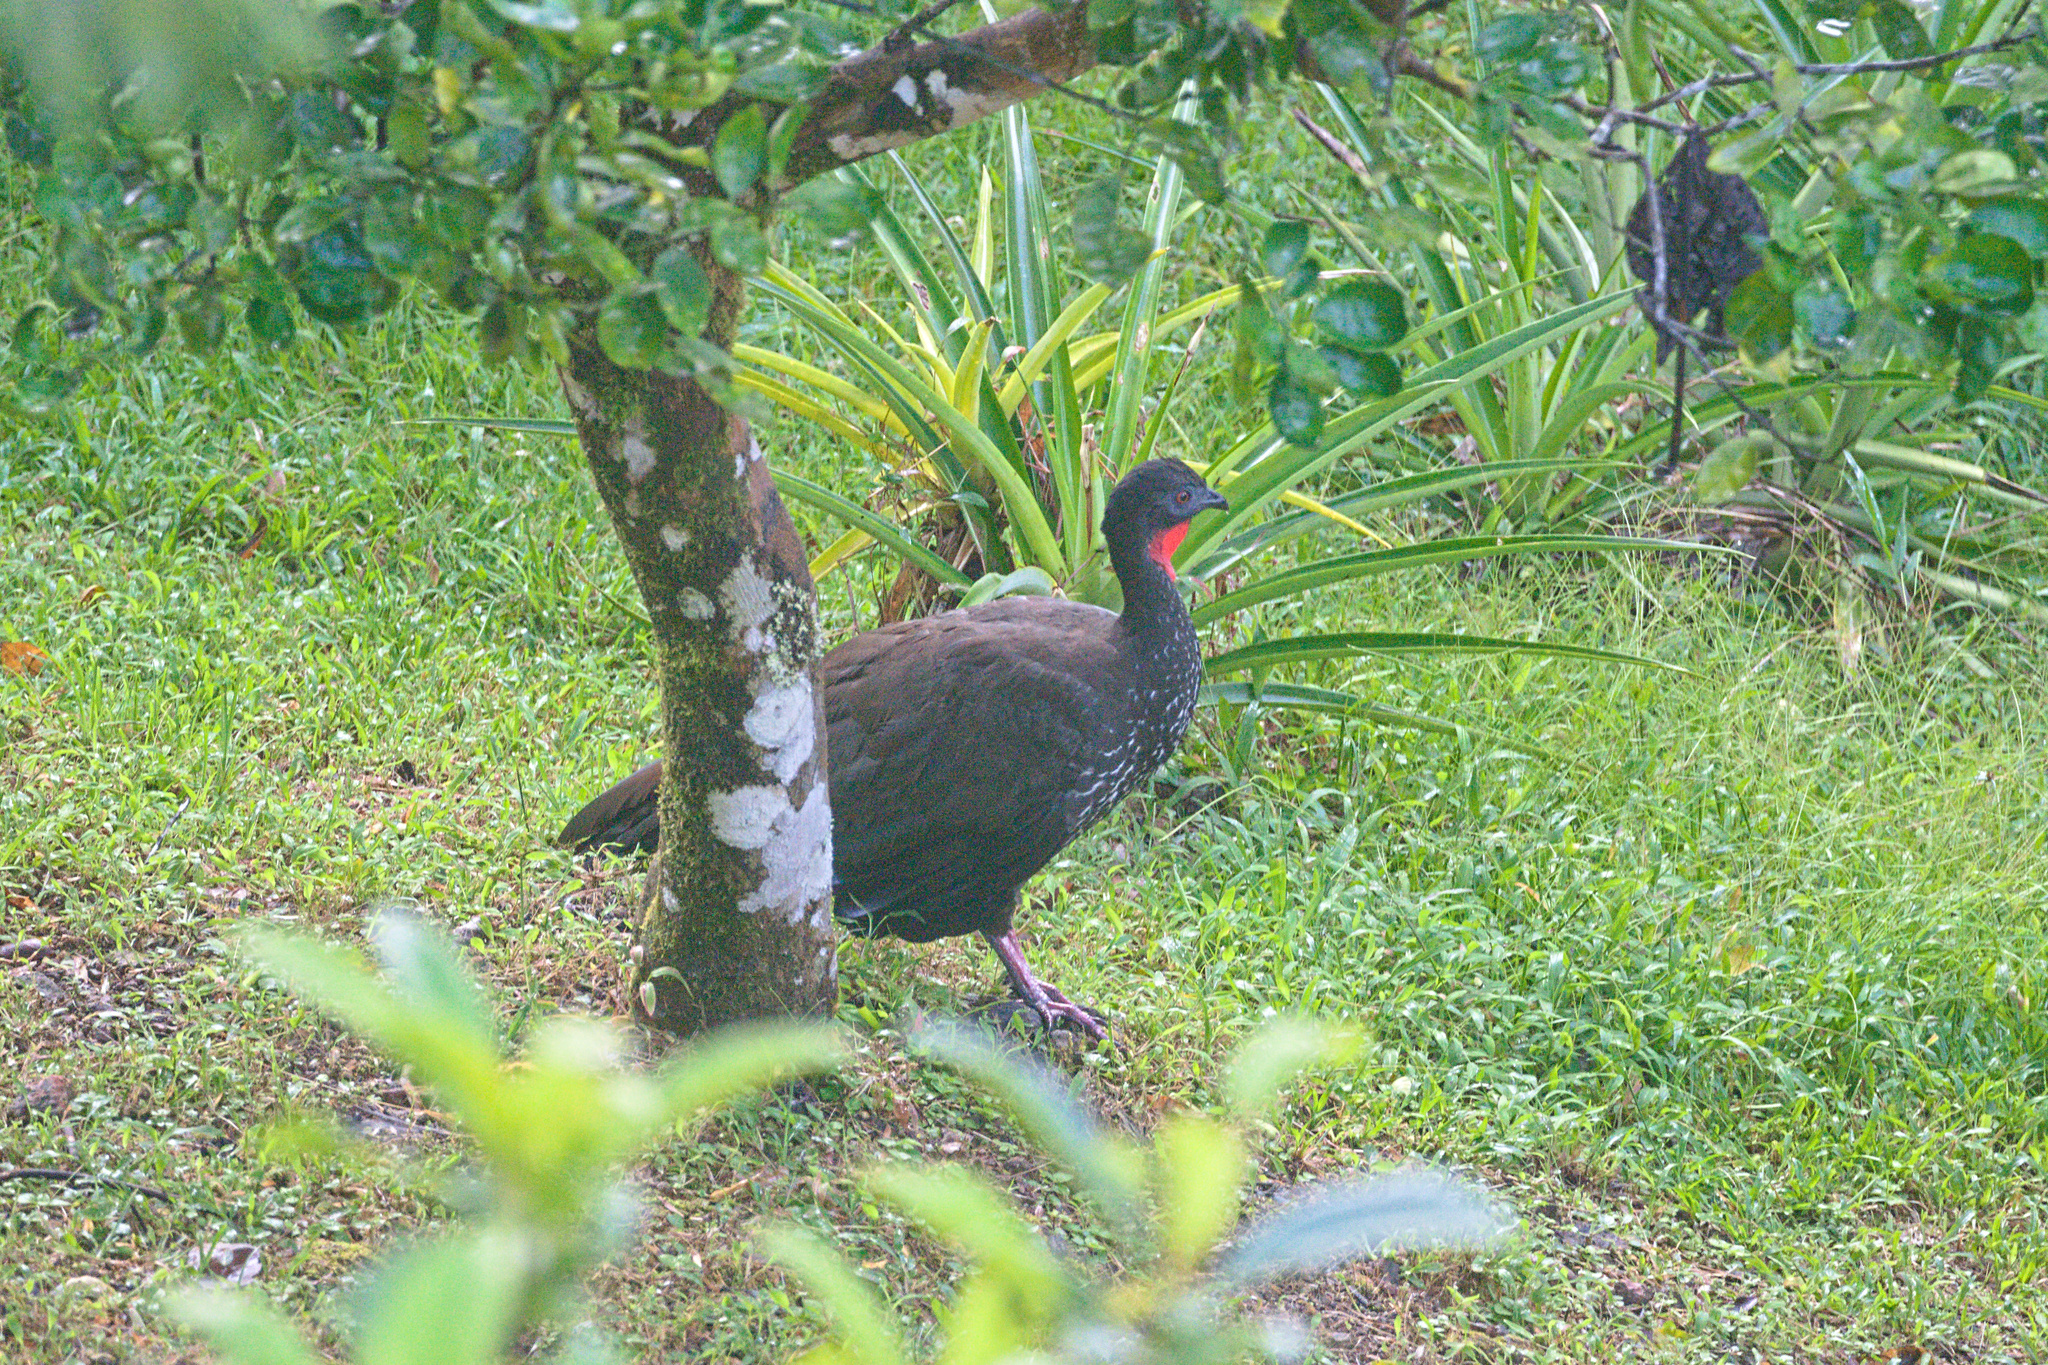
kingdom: Animalia
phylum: Chordata
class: Aves
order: Galliformes
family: Cracidae
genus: Penelope
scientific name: Penelope purpurascens
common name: Crested guan
